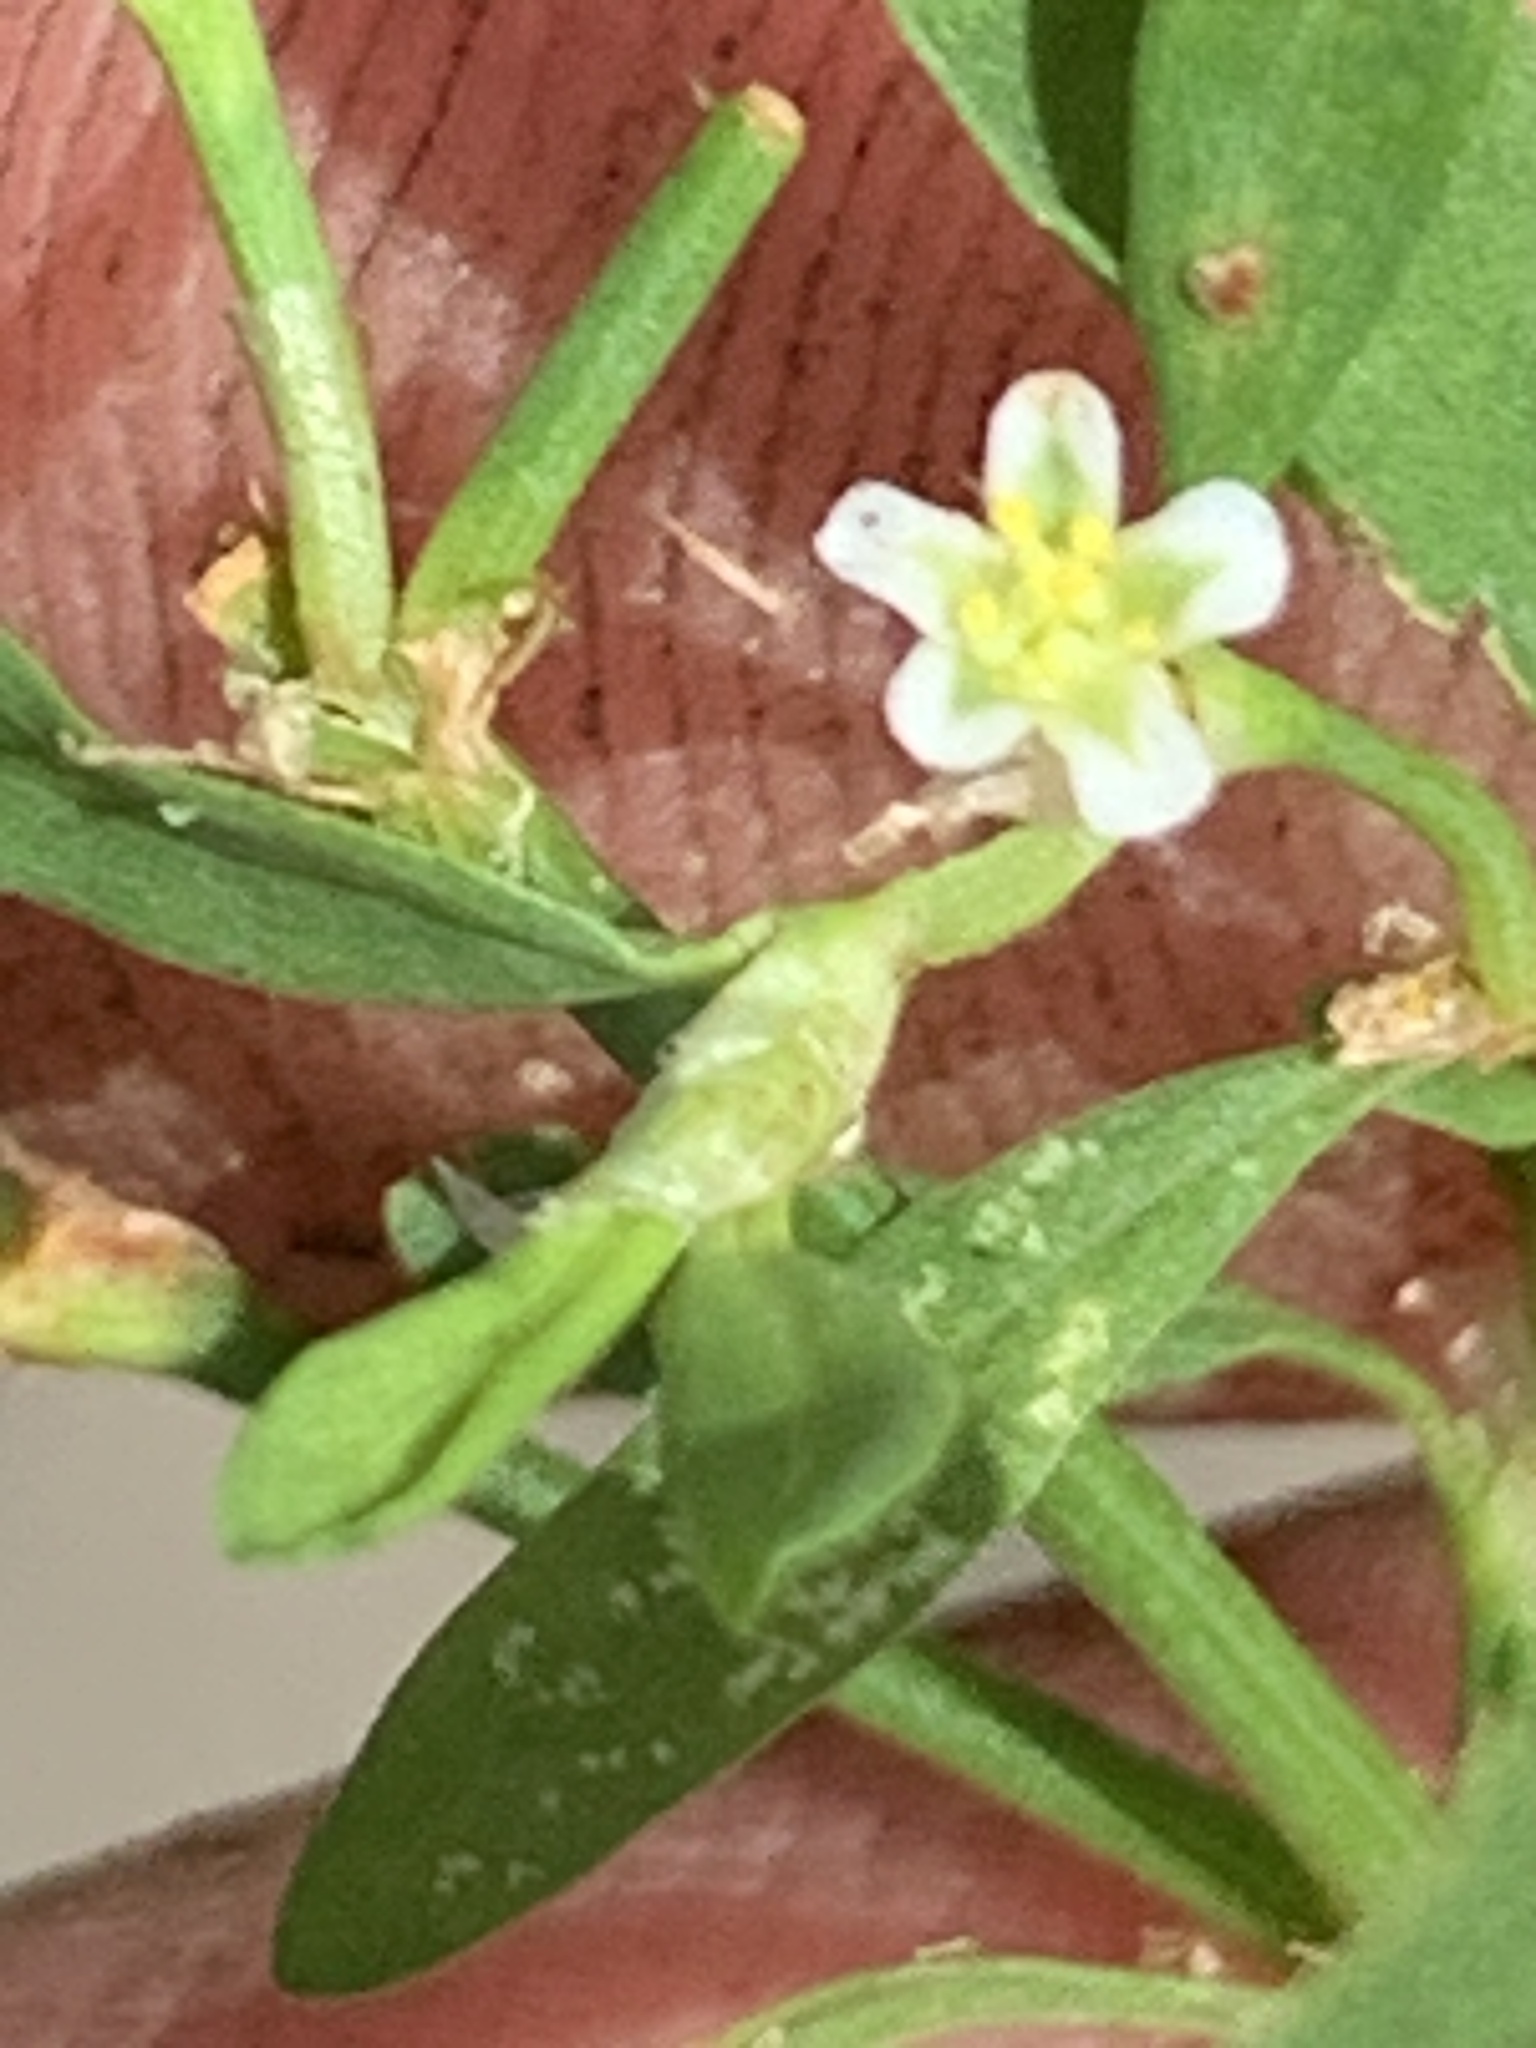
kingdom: Plantae
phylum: Tracheophyta
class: Magnoliopsida
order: Caryophyllales
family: Polygonaceae
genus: Polygonum
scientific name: Polygonum aviculare
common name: Prostrate knotweed
